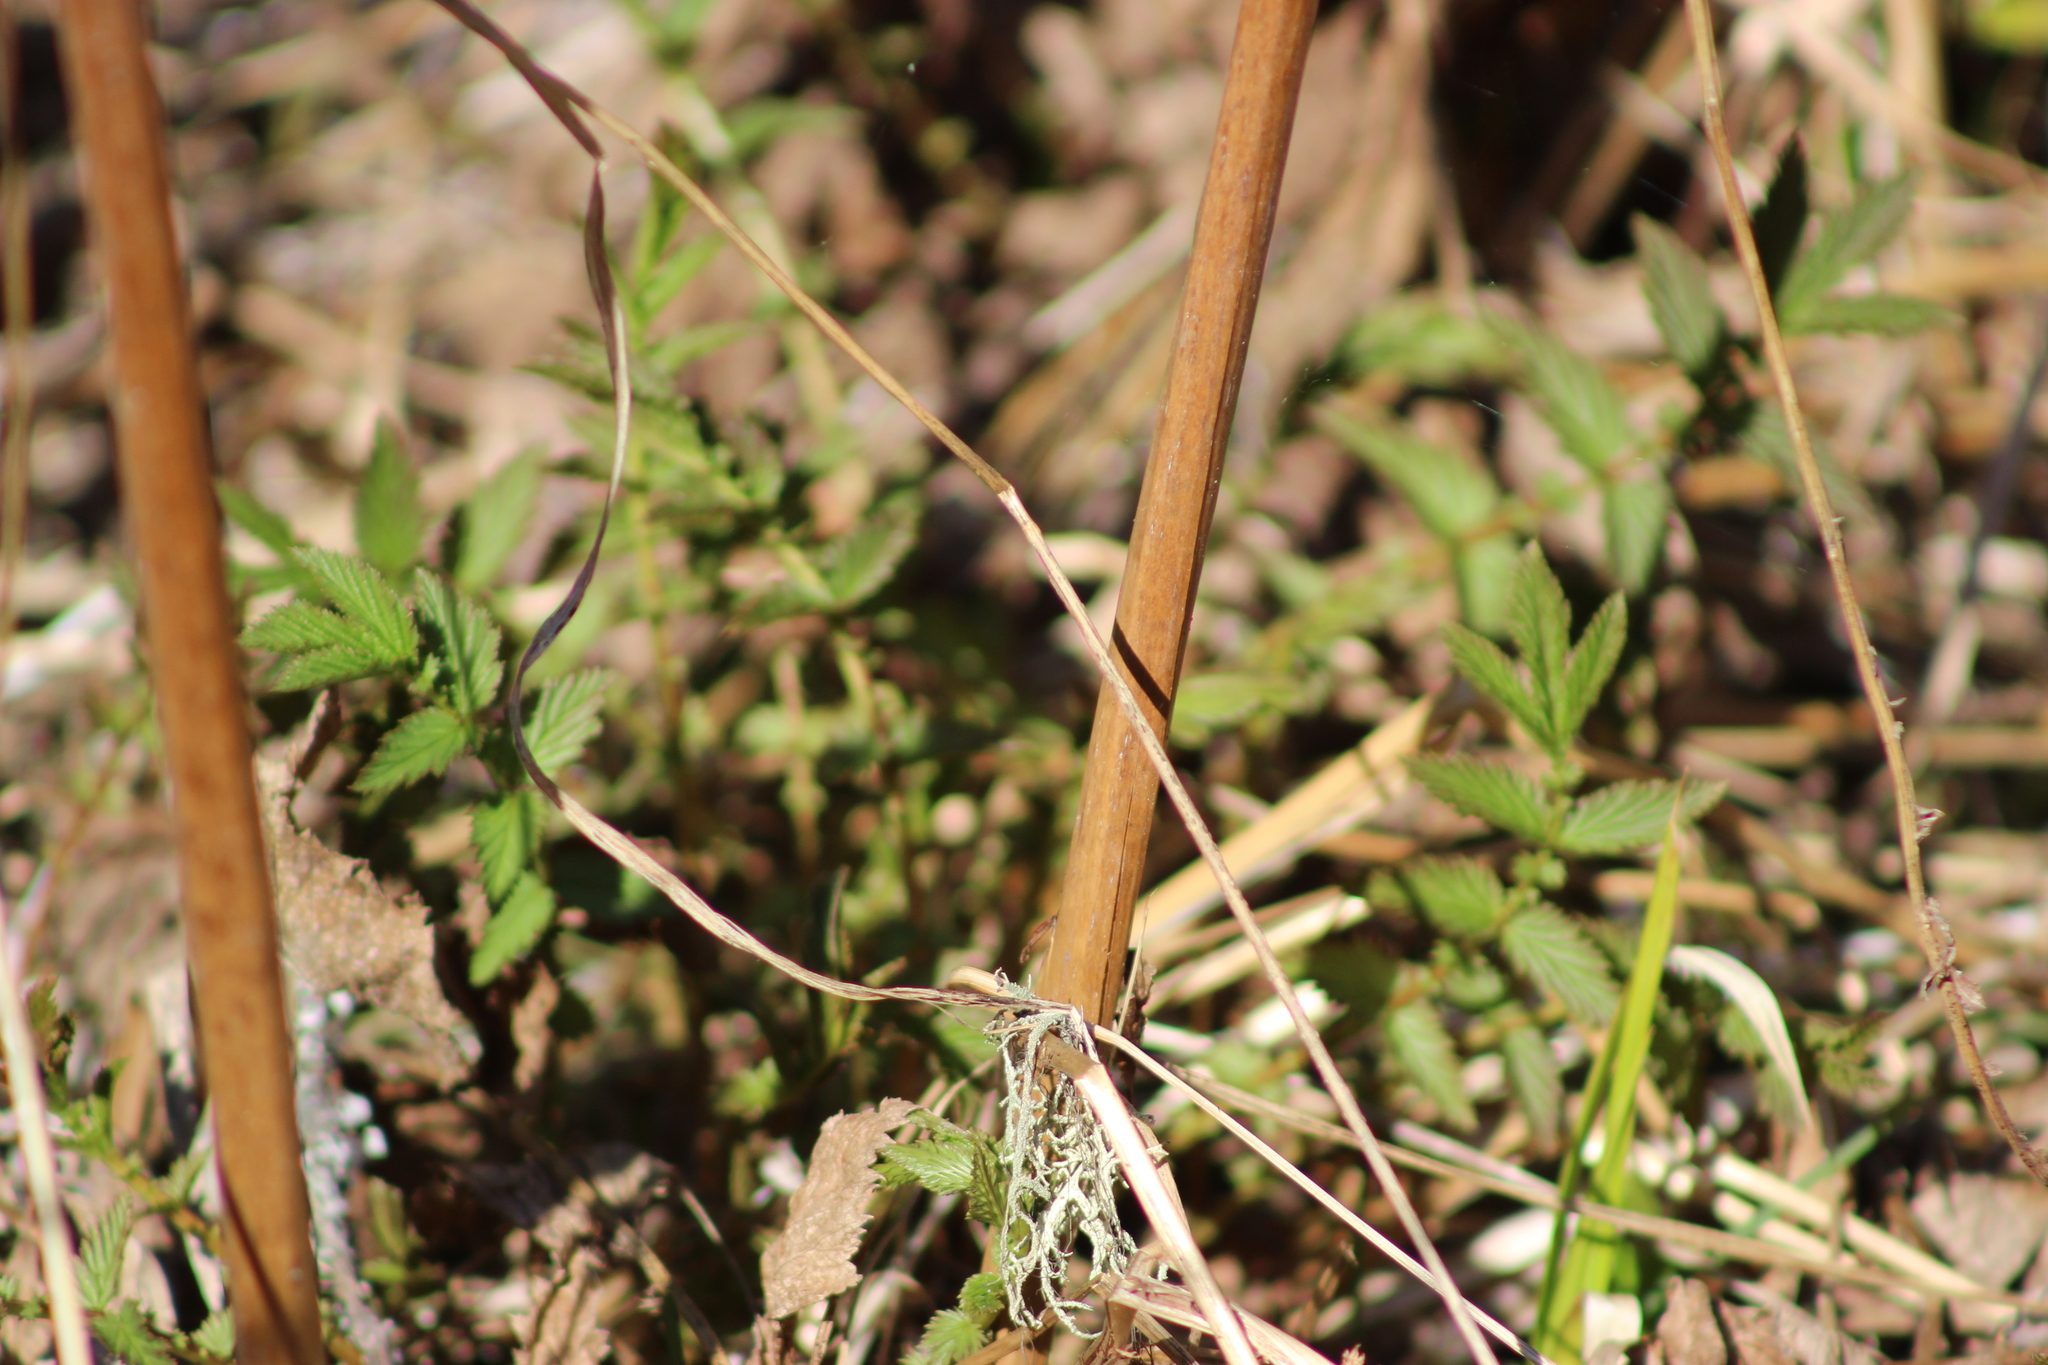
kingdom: Plantae
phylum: Tracheophyta
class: Magnoliopsida
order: Rosales
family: Rosaceae
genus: Filipendula
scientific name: Filipendula ulmaria
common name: Meadowsweet
